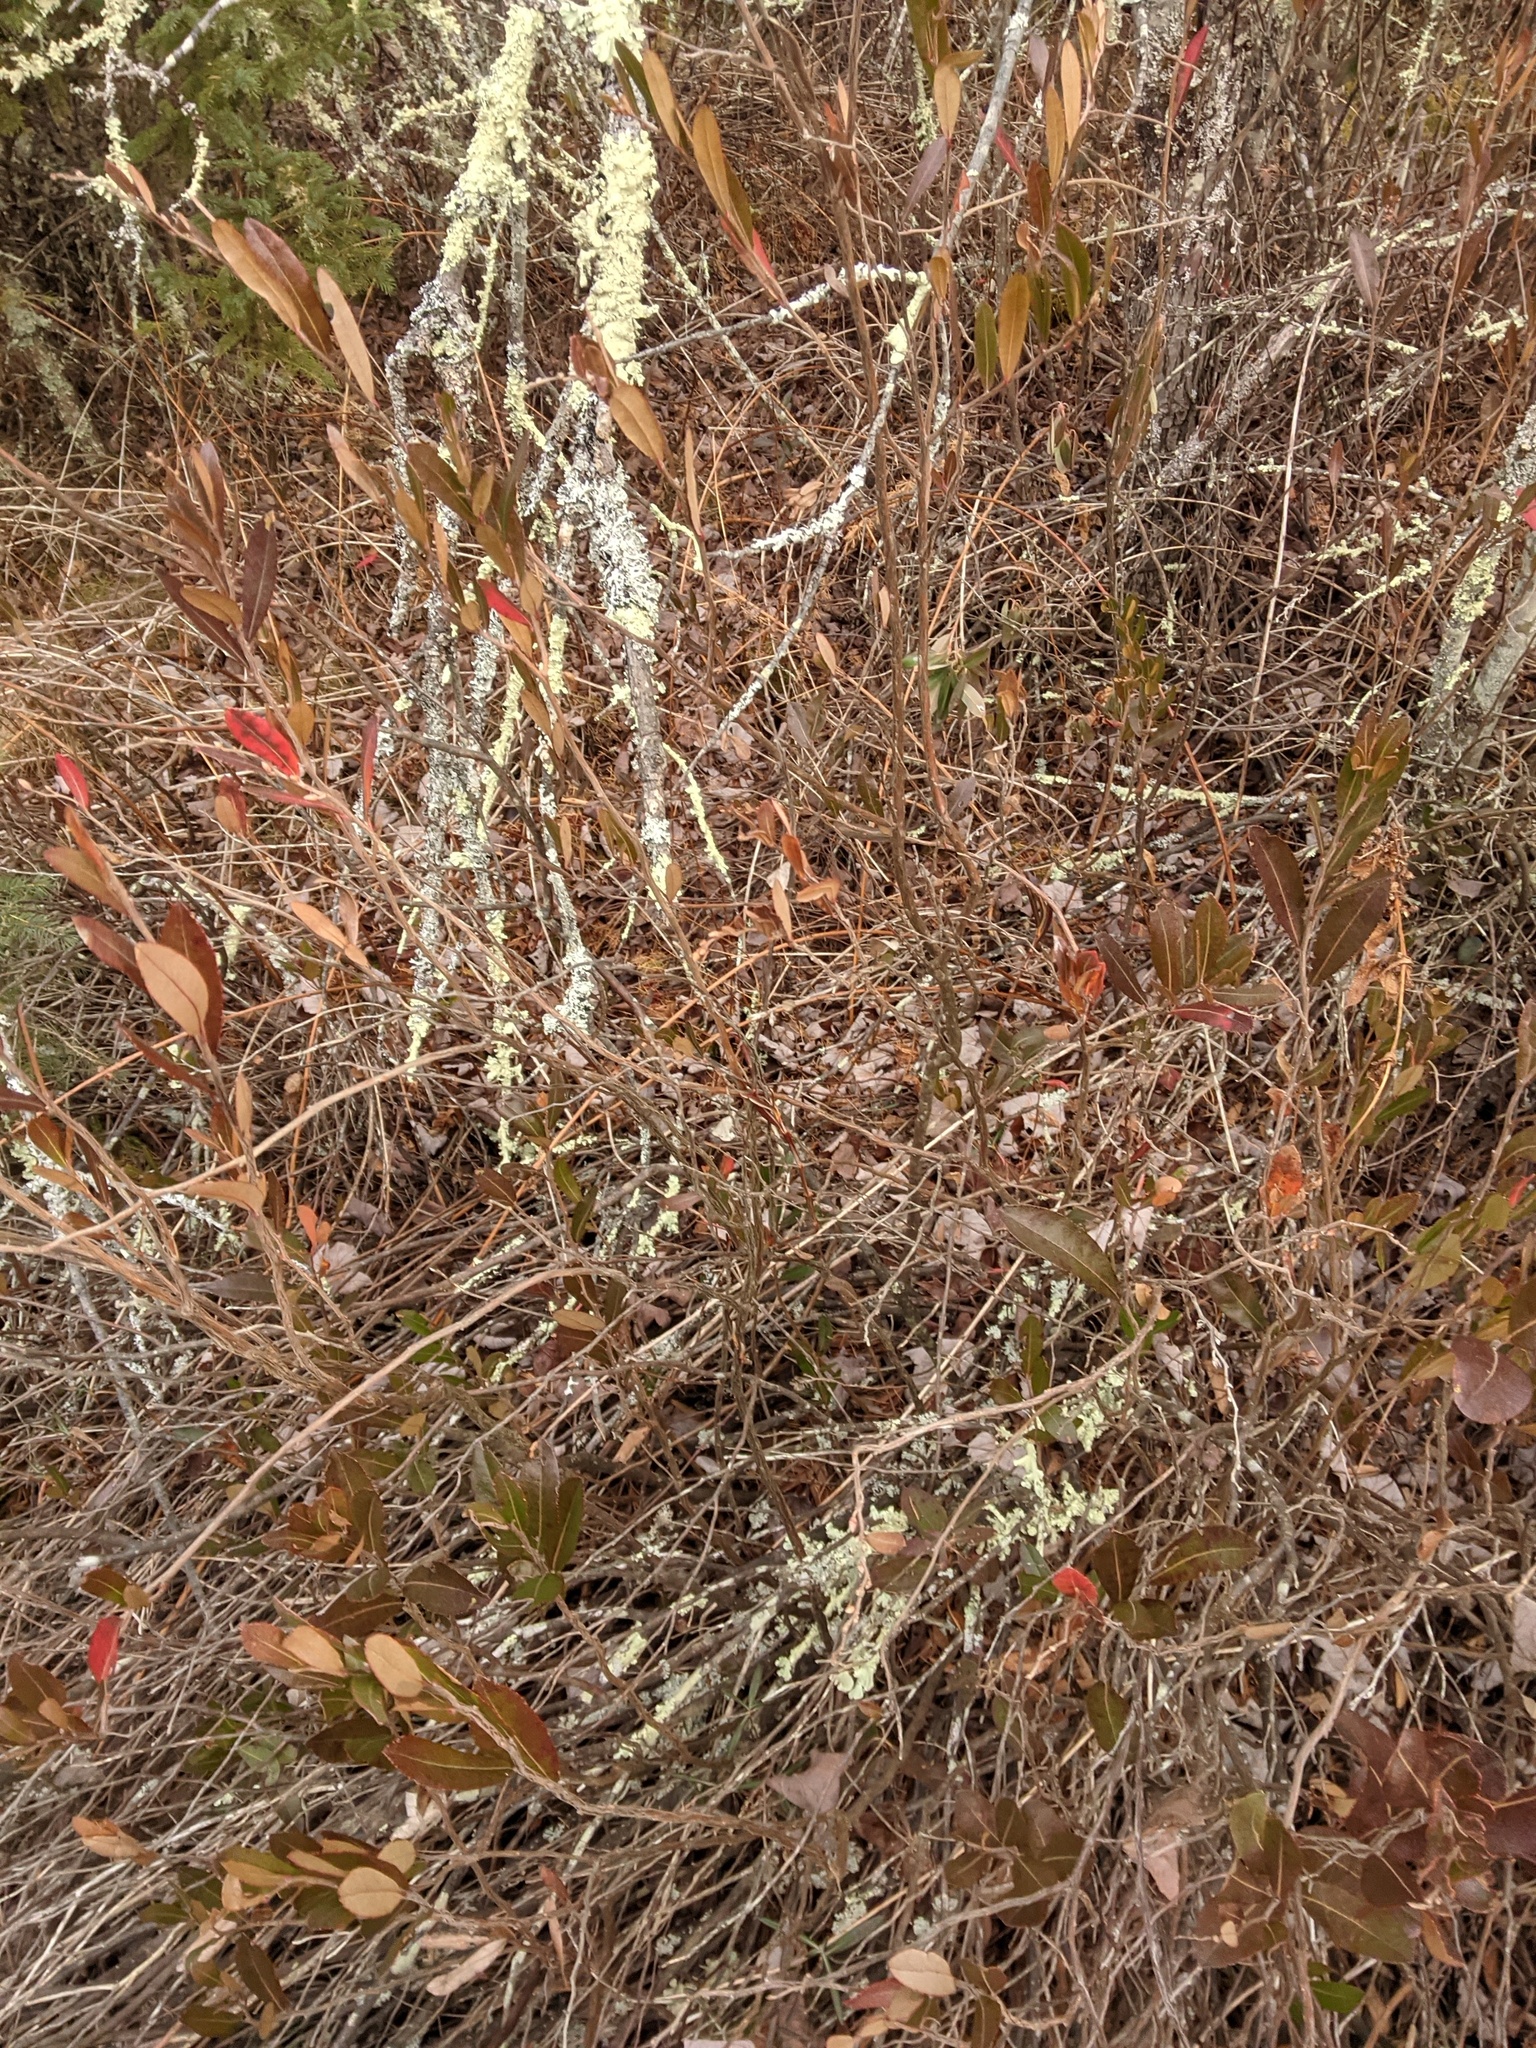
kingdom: Plantae
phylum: Tracheophyta
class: Magnoliopsida
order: Ericales
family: Ericaceae
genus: Chamaedaphne
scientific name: Chamaedaphne calyculata
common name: Leatherleaf
